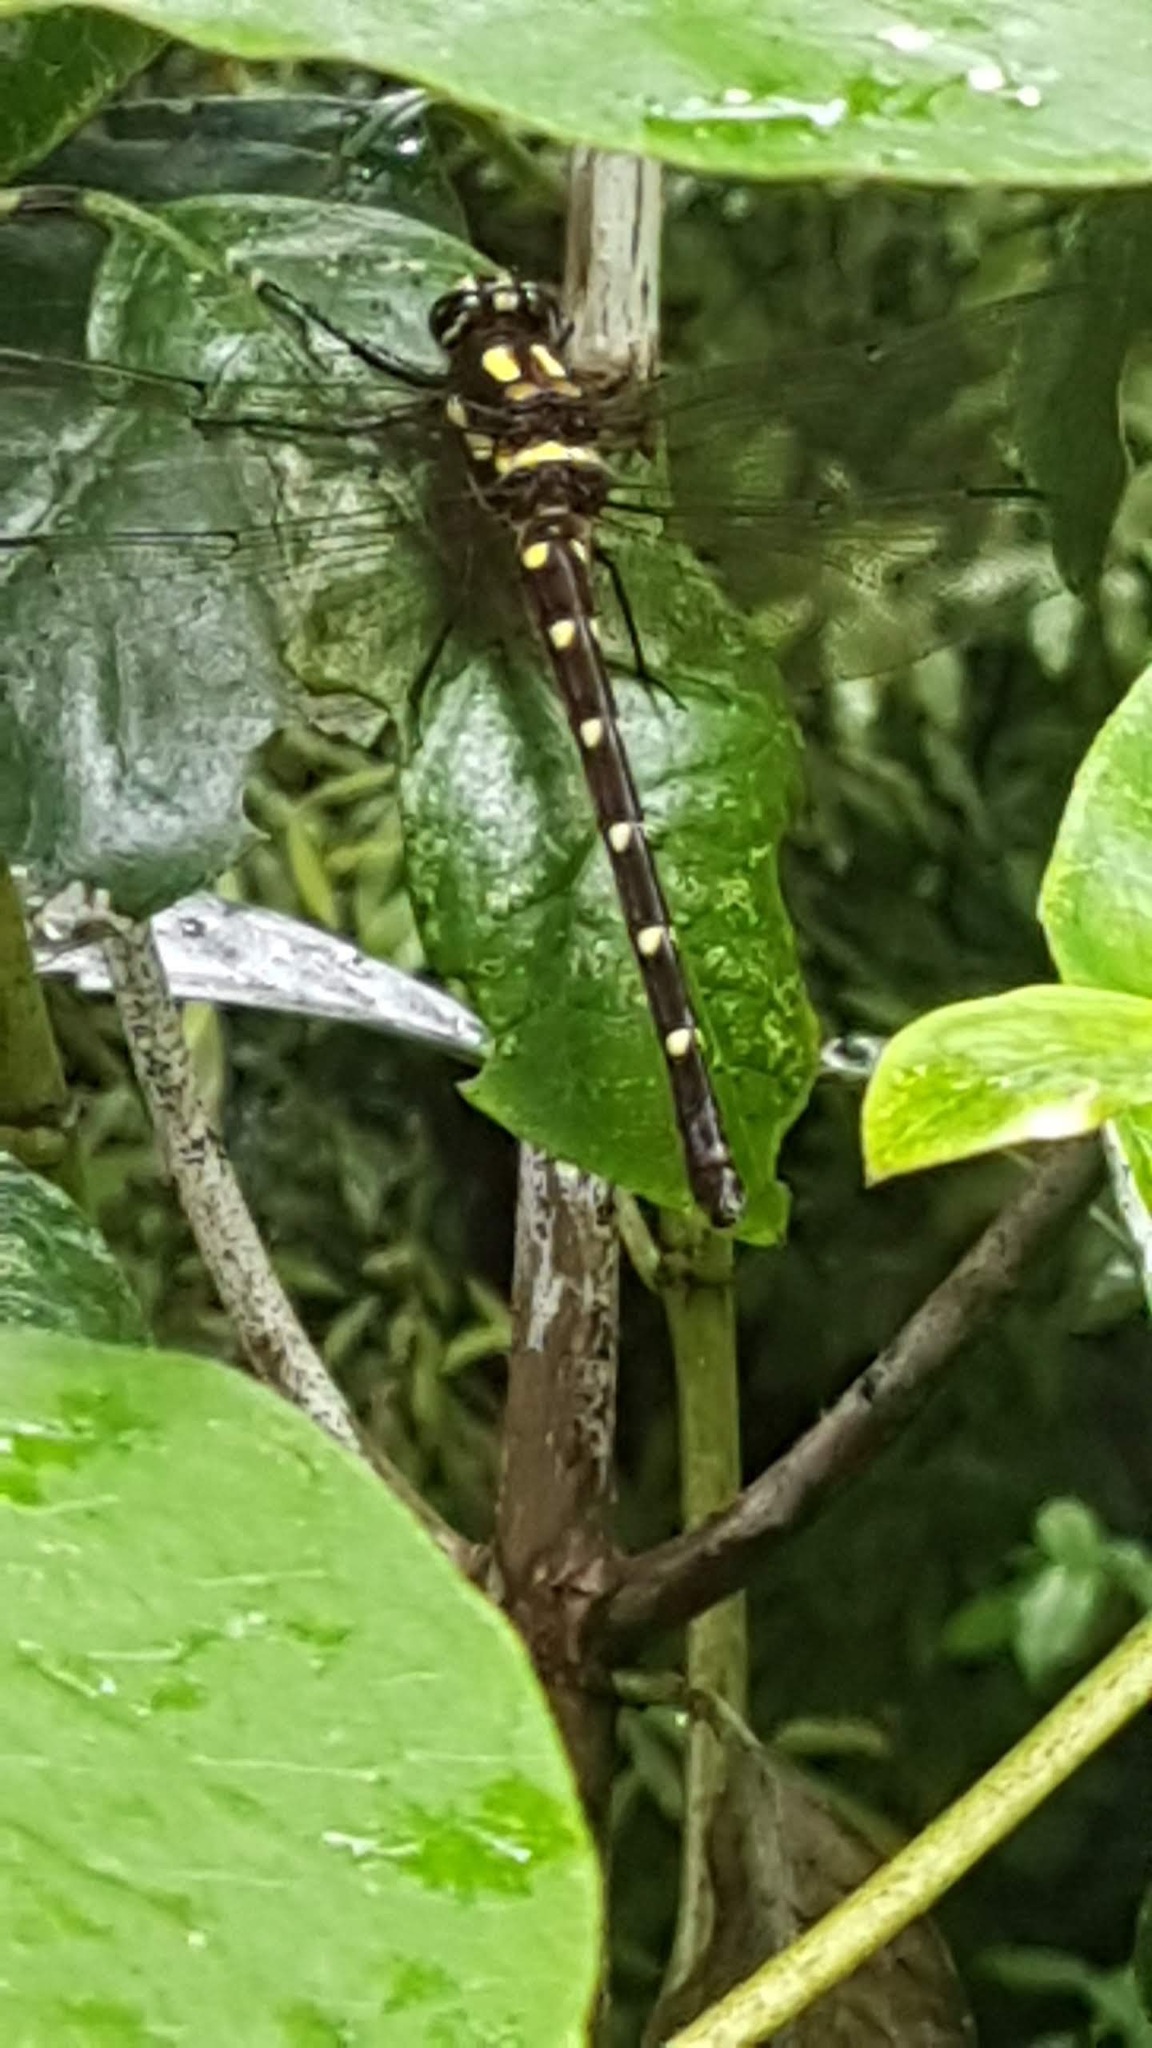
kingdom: Animalia
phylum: Arthropoda
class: Insecta
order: Odonata
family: Petaluridae
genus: Uropetala
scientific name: Uropetala carovei
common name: Bush giant dragonfly
